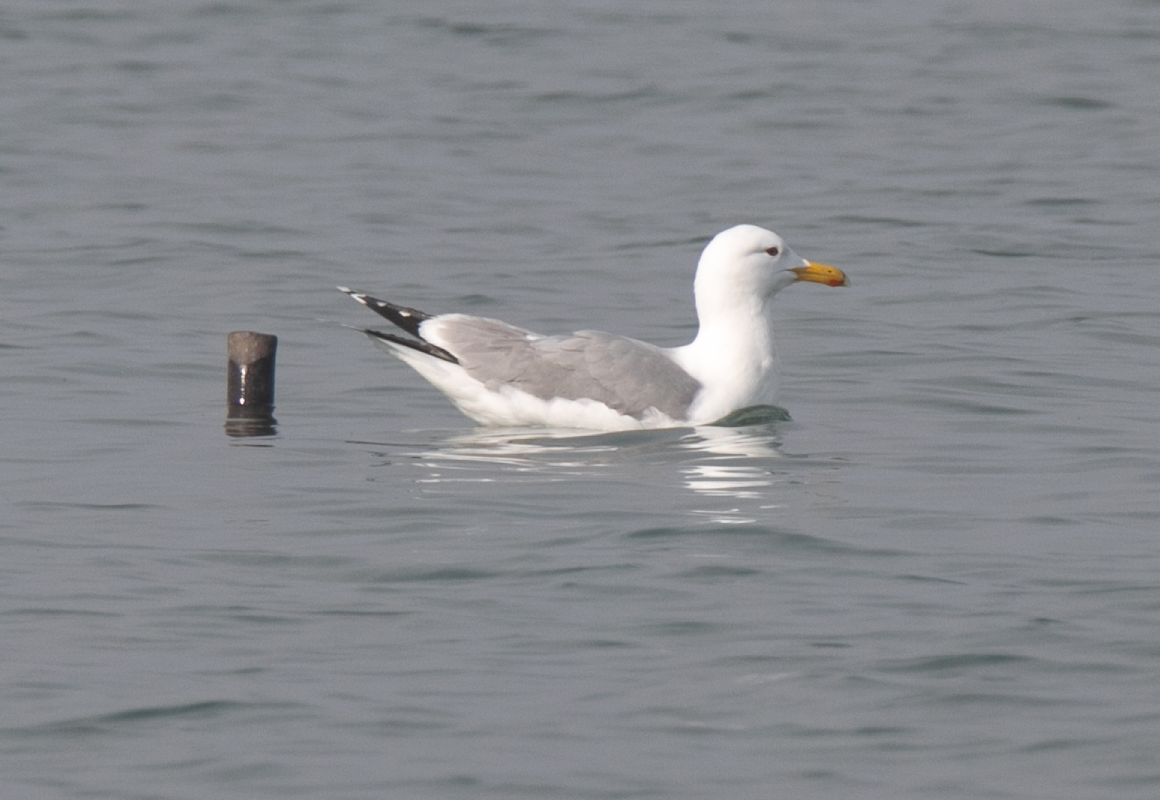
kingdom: Animalia
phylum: Chordata
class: Aves
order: Charadriiformes
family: Laridae
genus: Larus
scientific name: Larus michahellis
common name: Yellow-legged gull
